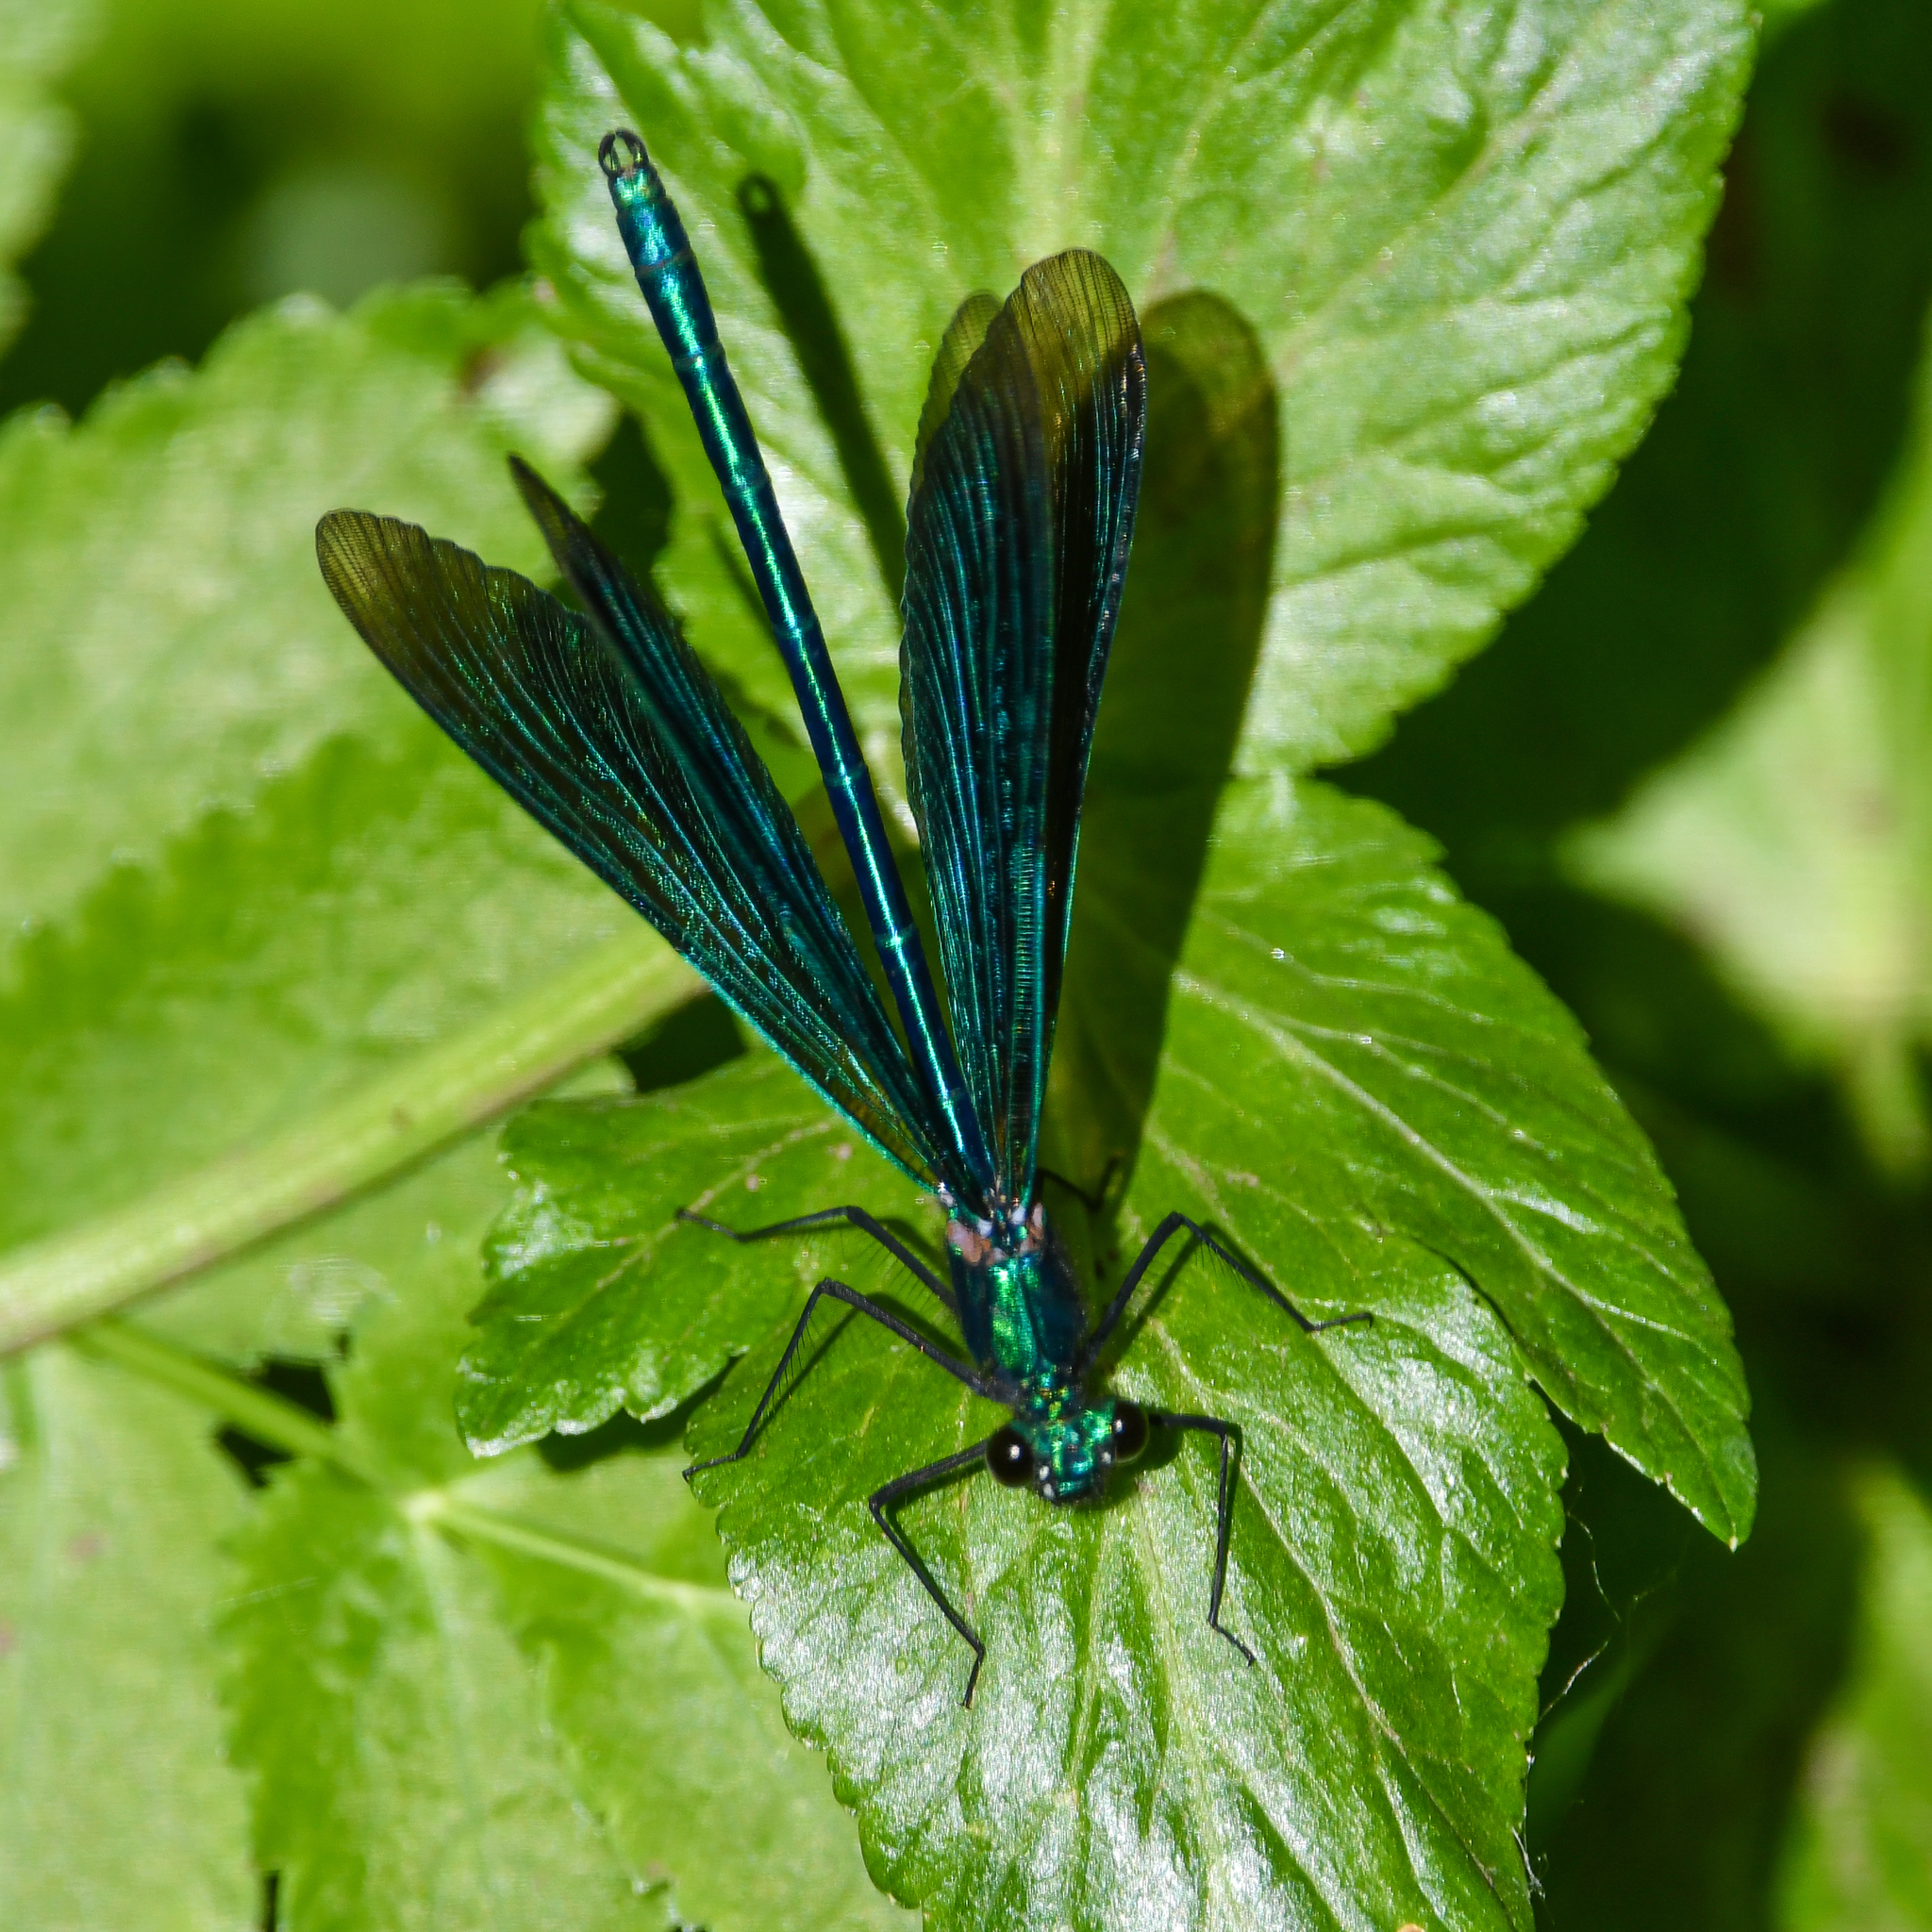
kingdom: Animalia
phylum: Arthropoda
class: Insecta
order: Odonata
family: Calopterygidae
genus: Calopteryx
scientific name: Calopteryx virgo
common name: Beautiful demoiselle
